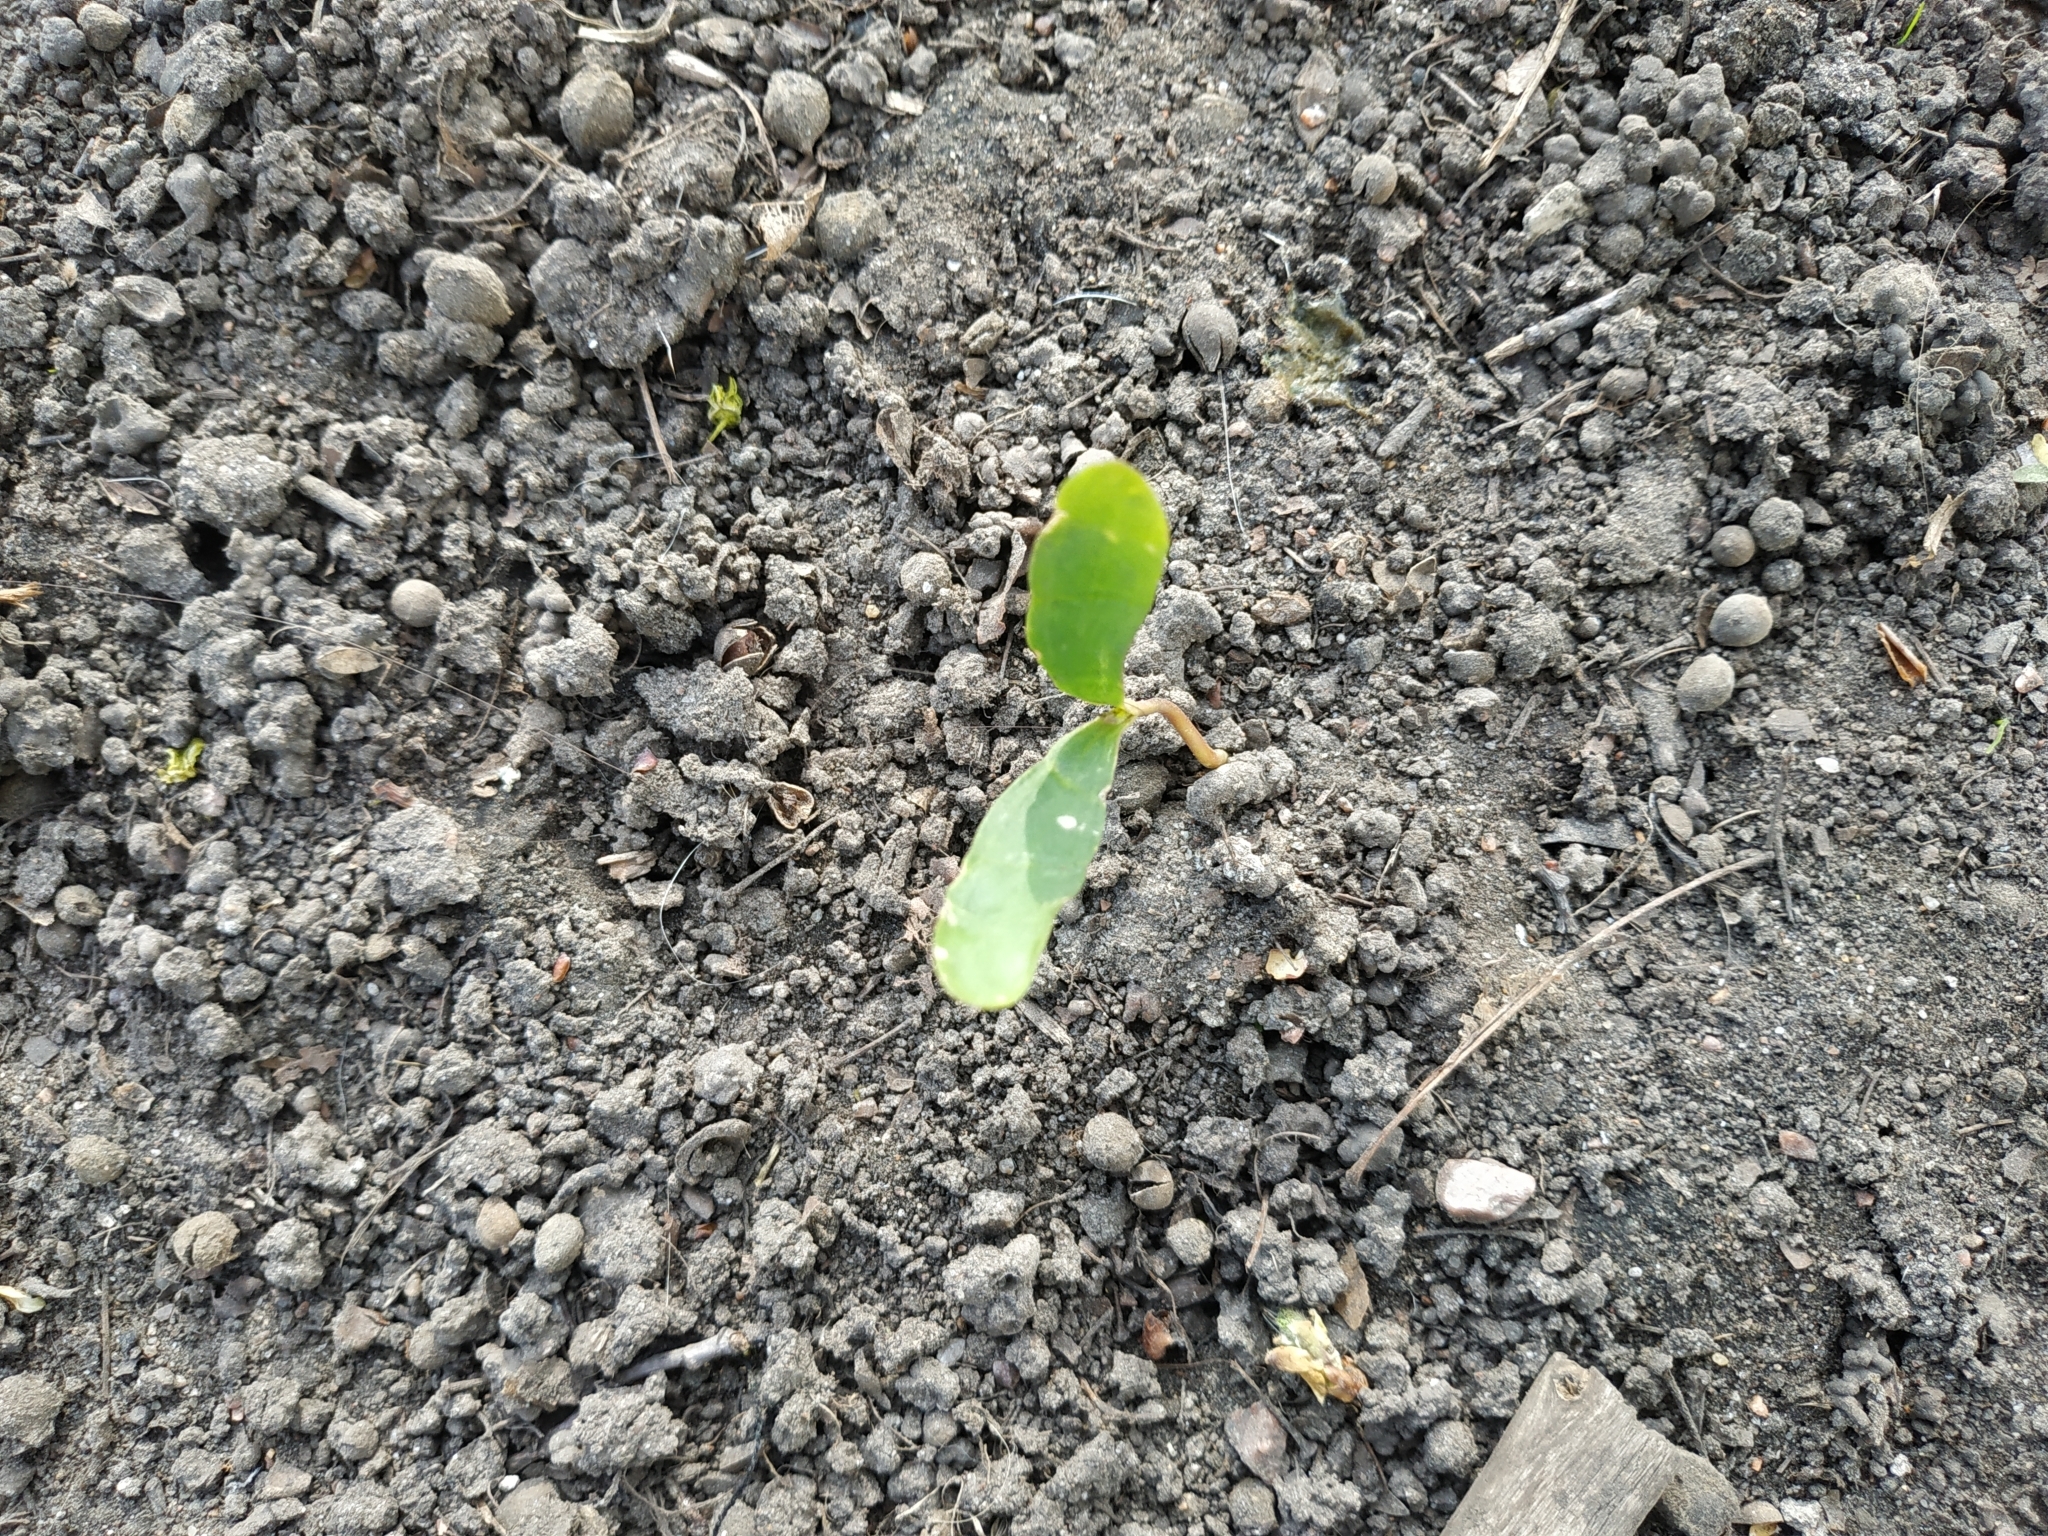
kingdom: Plantae
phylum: Tracheophyta
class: Magnoliopsida
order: Sapindales
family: Sapindaceae
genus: Acer
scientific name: Acer platanoides
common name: Norway maple
